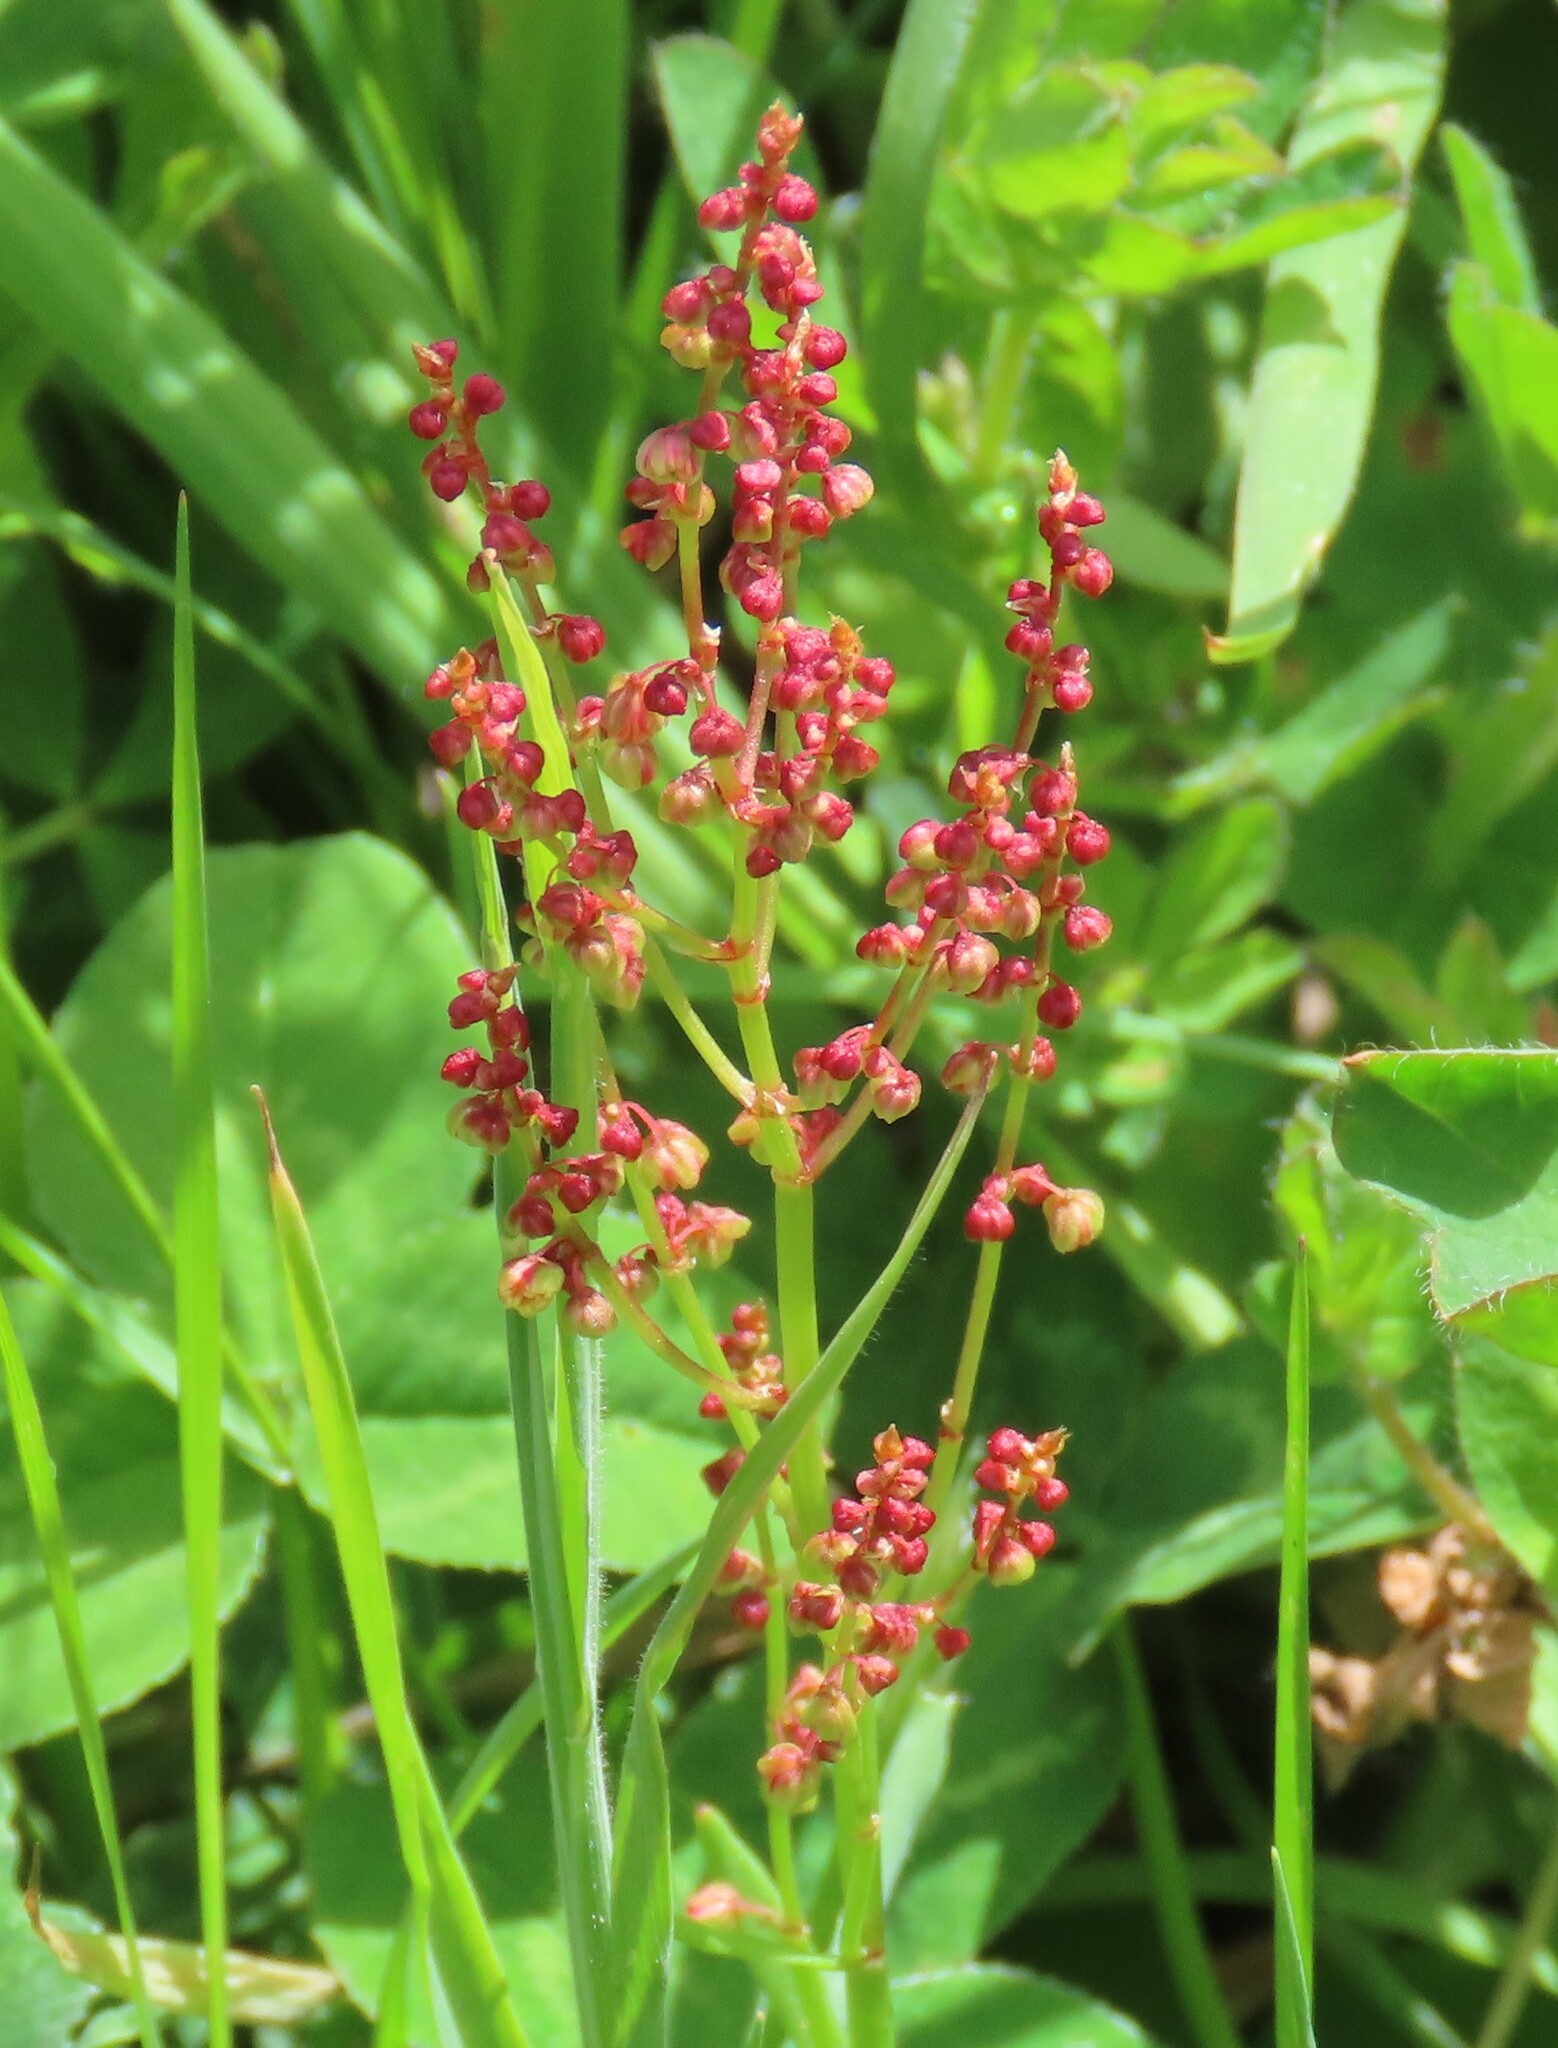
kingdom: Plantae
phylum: Tracheophyta
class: Magnoliopsida
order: Caryophyllales
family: Polygonaceae
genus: Rumex
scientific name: Rumex acetosella
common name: Common sheep sorrel
